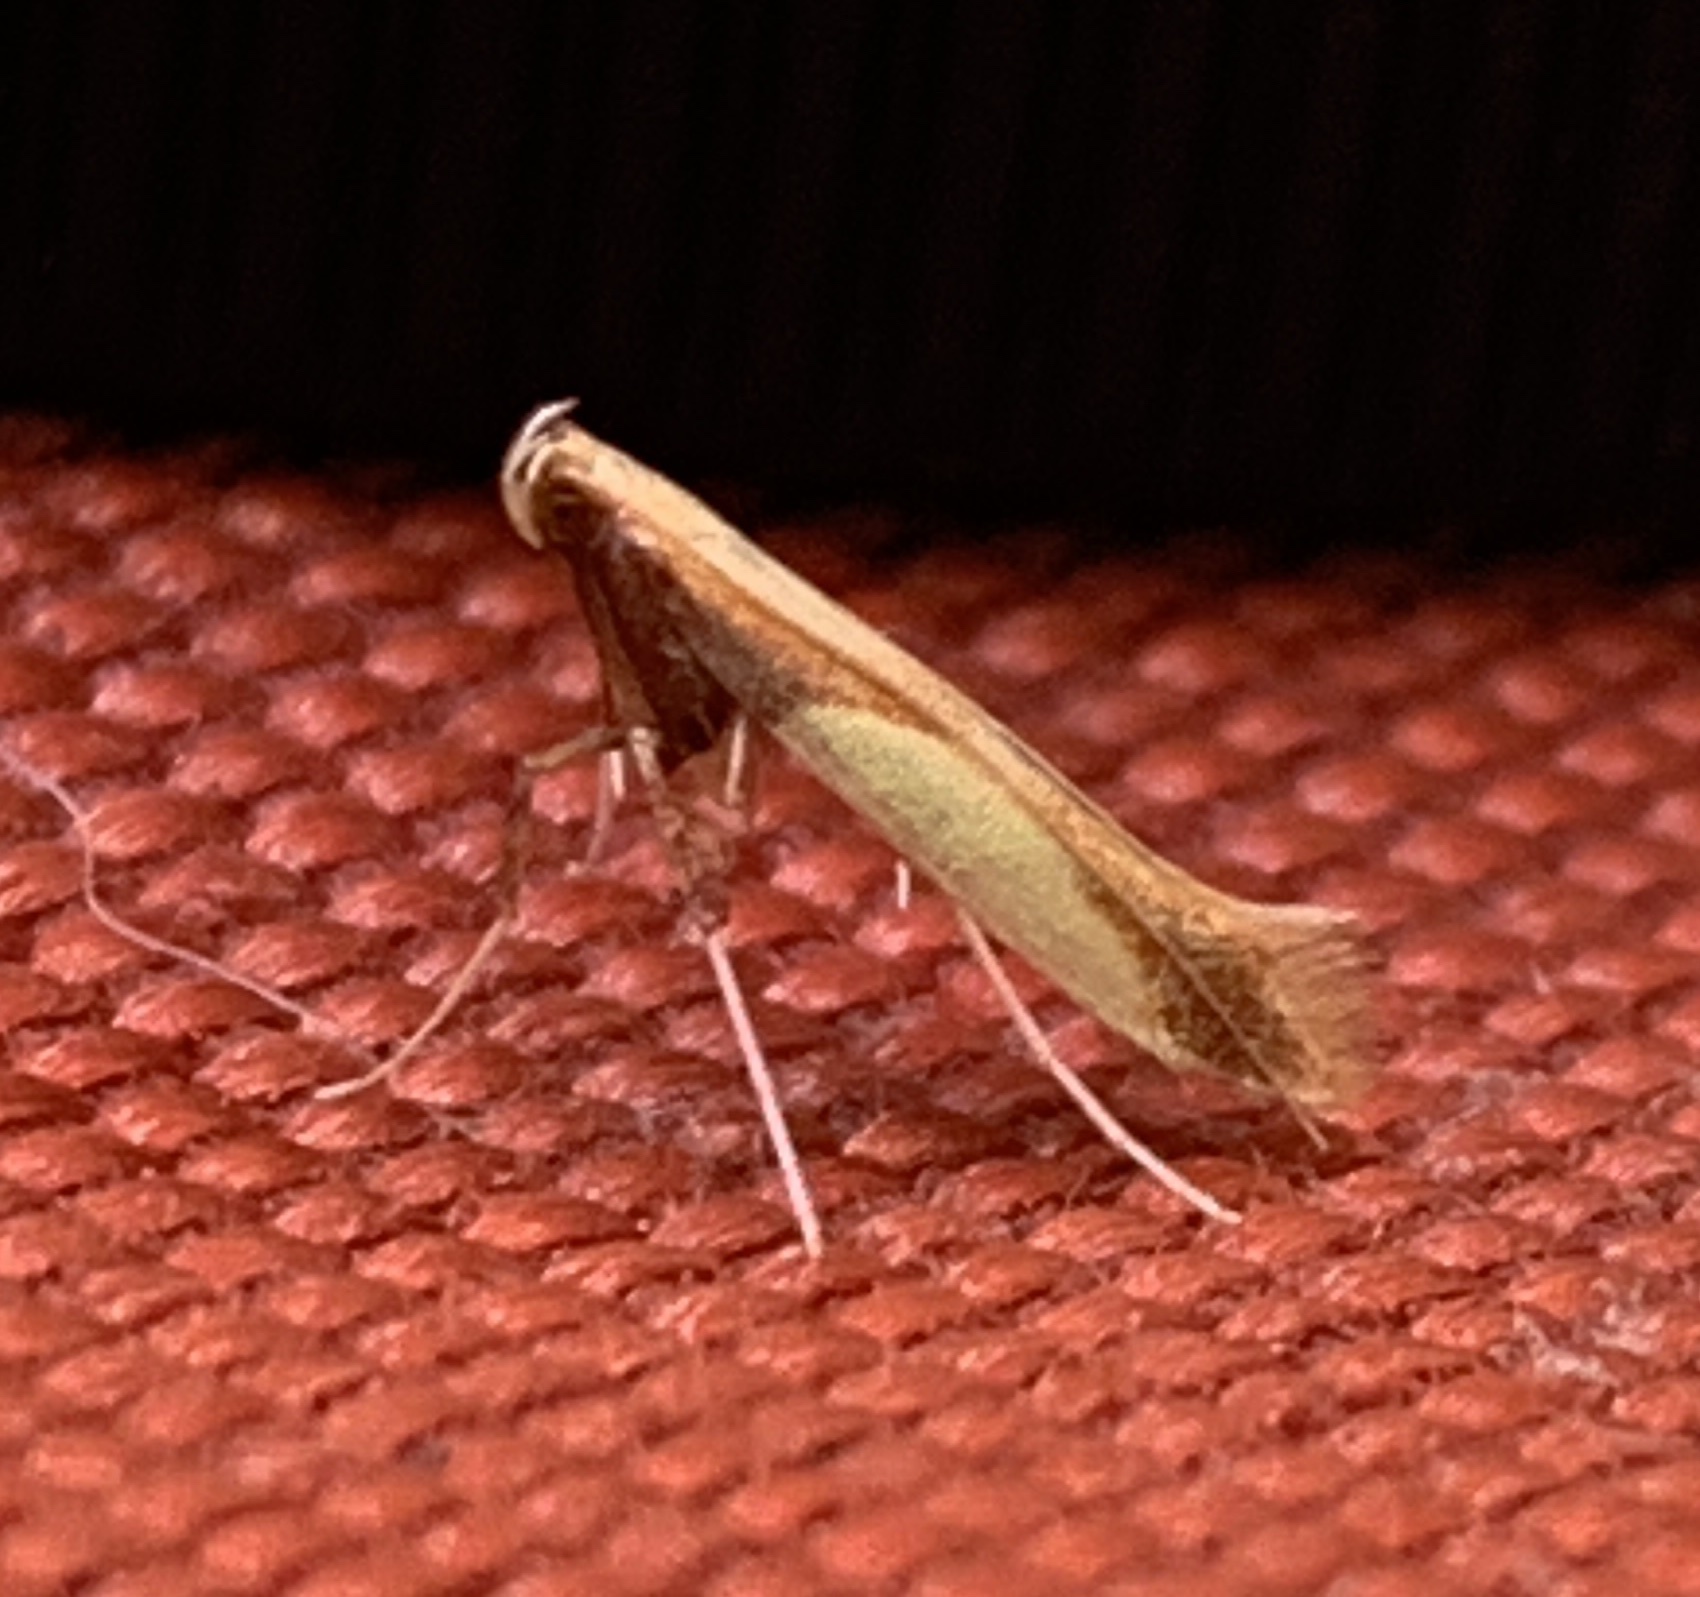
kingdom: Animalia
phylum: Arthropoda
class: Insecta
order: Lepidoptera
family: Gracillariidae
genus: Caloptilia
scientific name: Caloptilia superbifrontella
